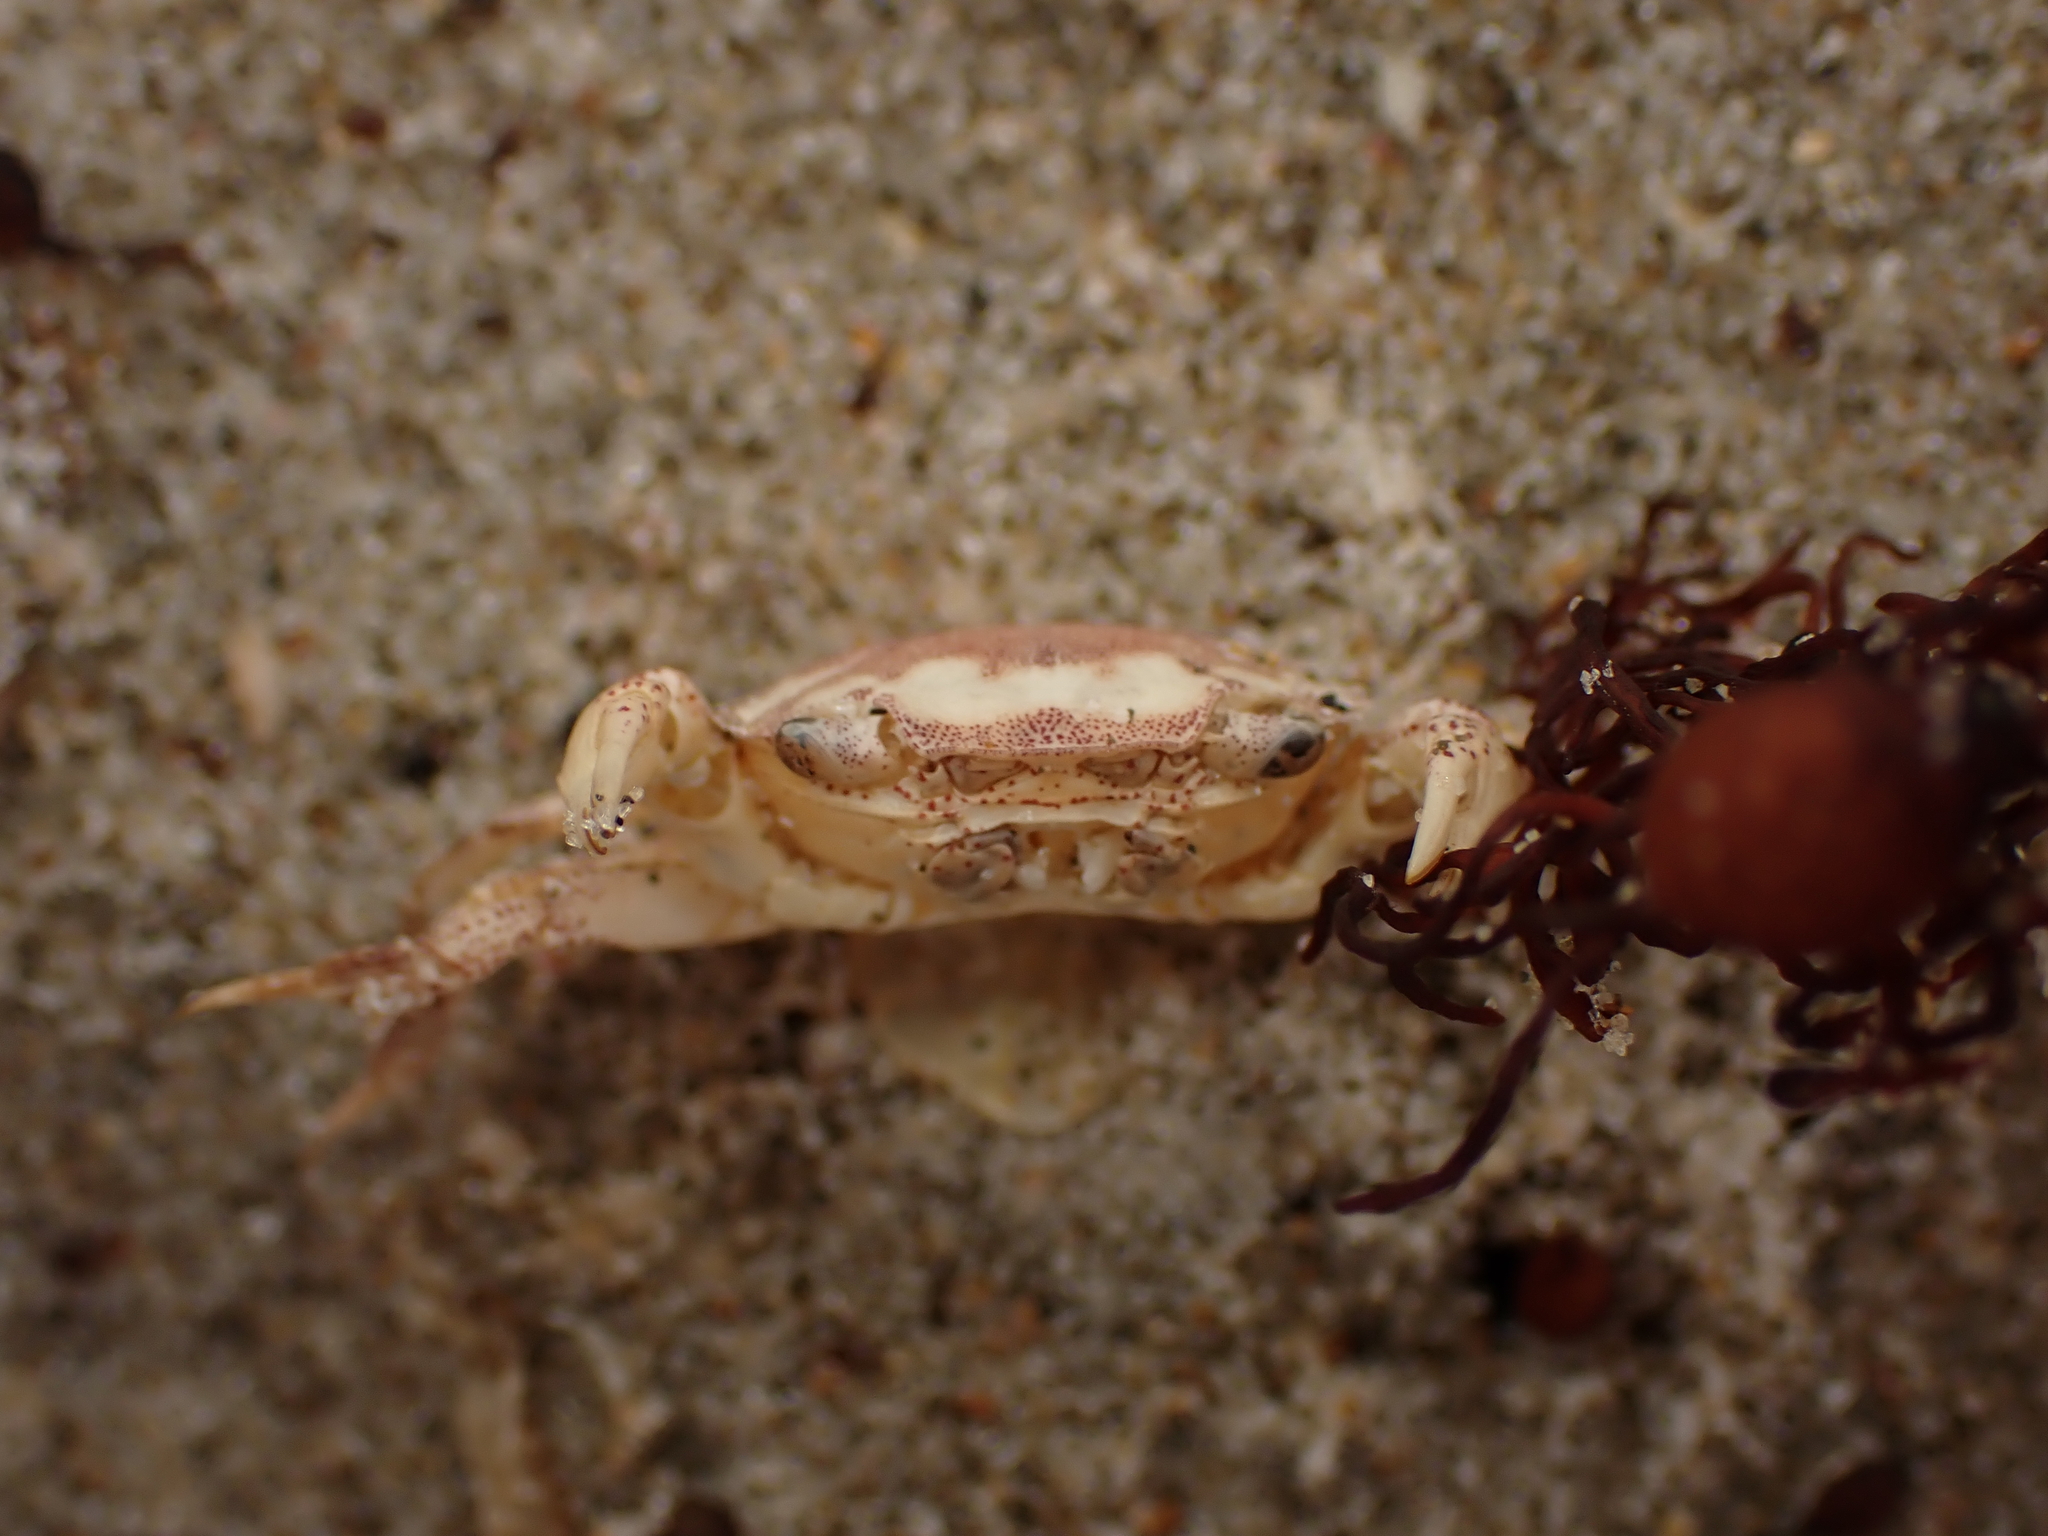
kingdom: Animalia
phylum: Arthropoda
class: Malacostraca
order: Decapoda
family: Varunidae
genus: Hemigrapsus
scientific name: Hemigrapsus crenulatus
